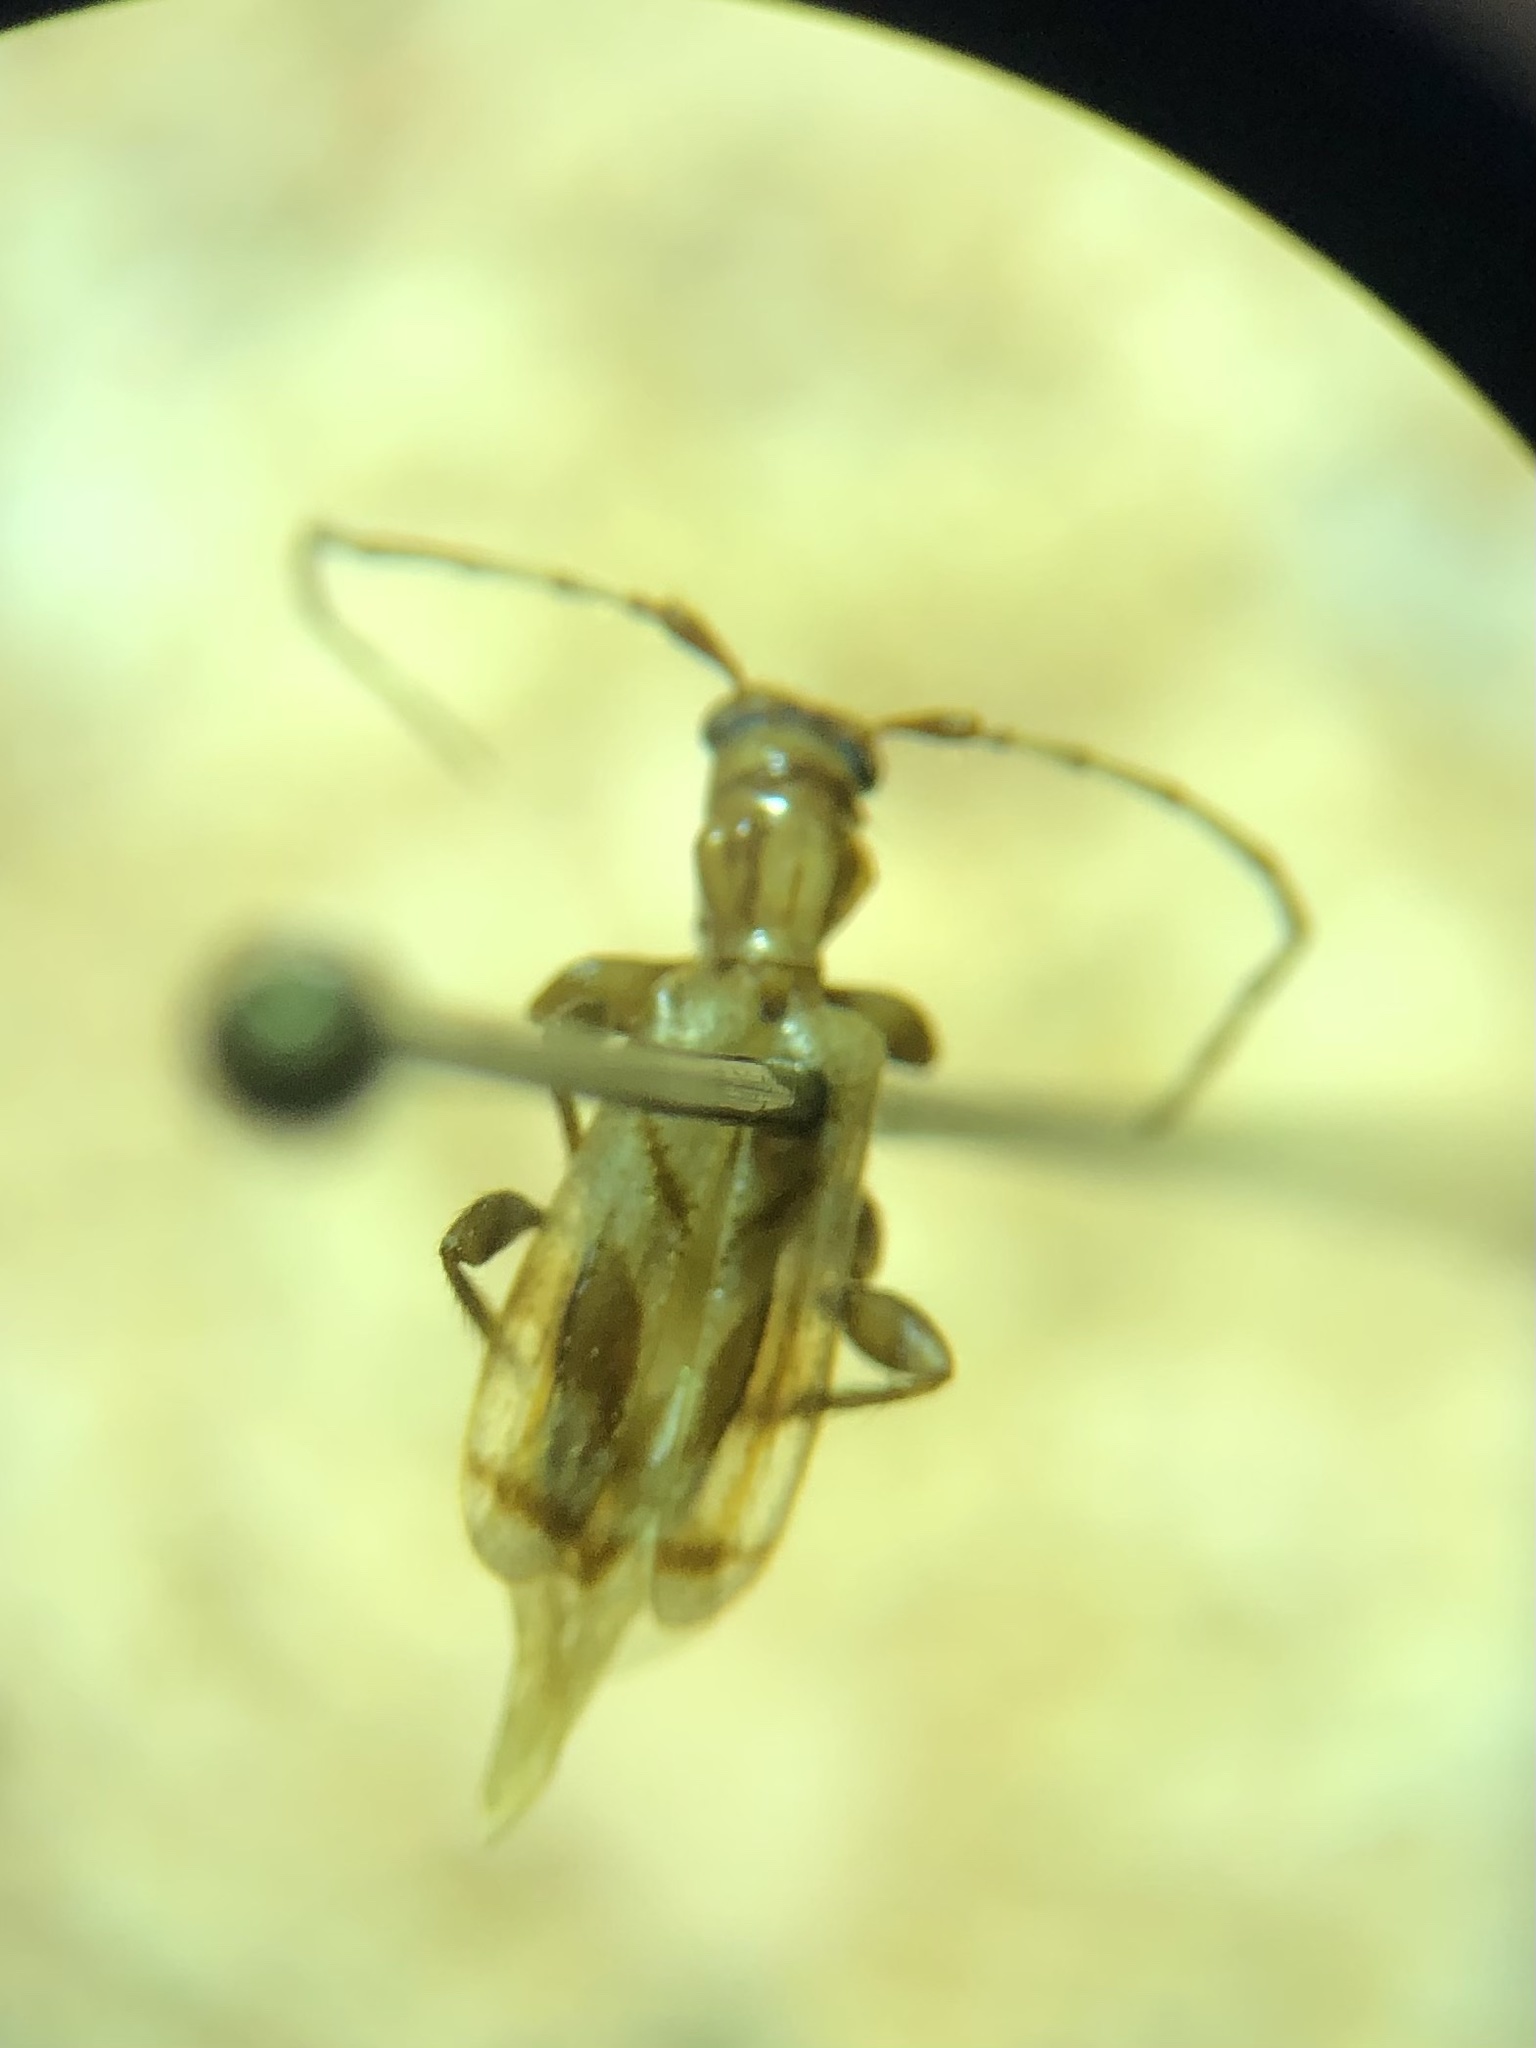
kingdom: Animalia
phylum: Arthropoda
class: Insecta
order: Coleoptera
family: Cerambycidae
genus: Obrium
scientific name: Obrium maculatum
